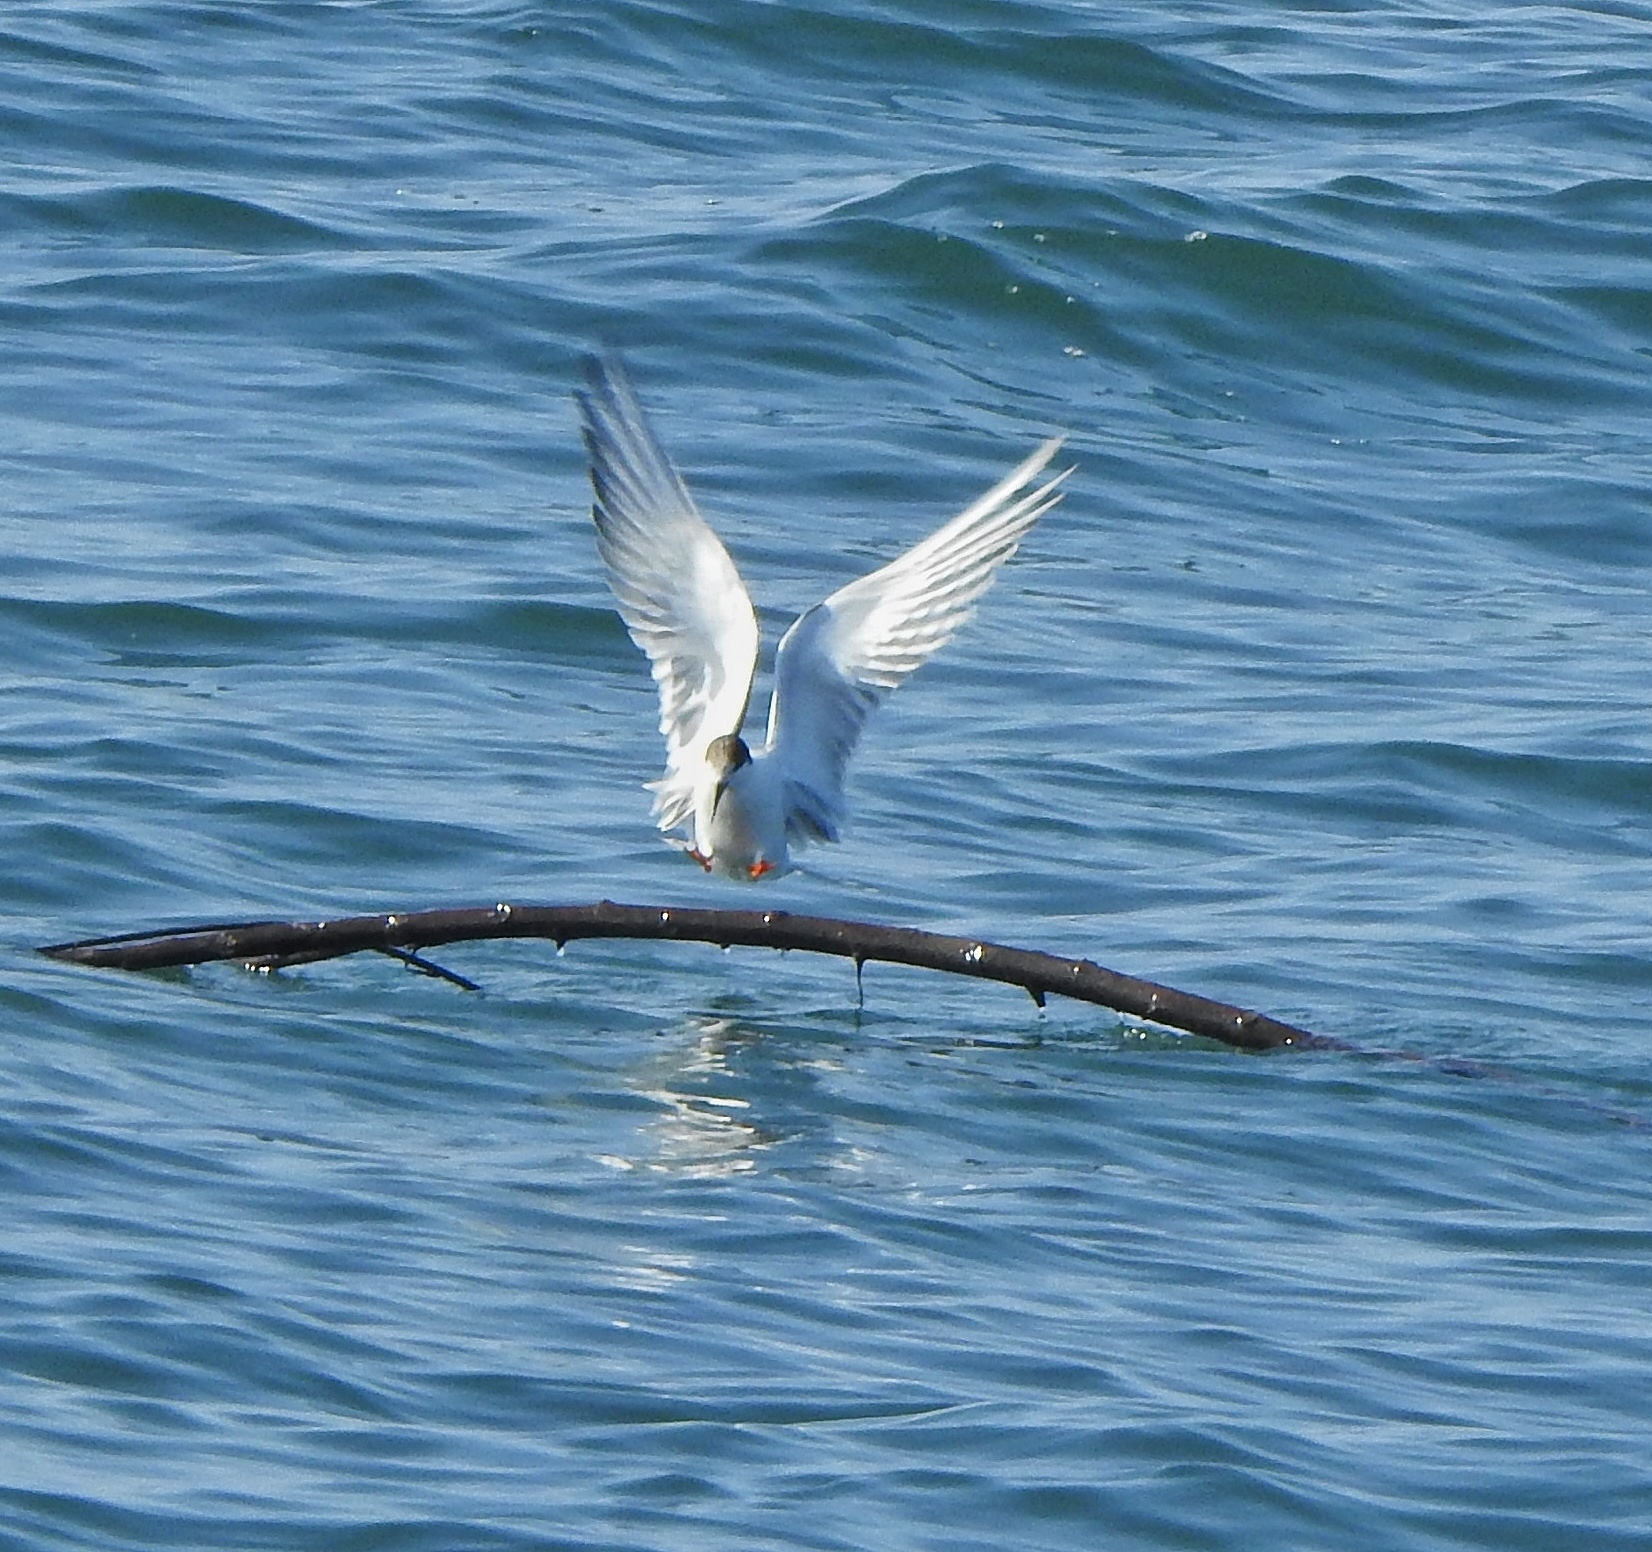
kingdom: Animalia
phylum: Chordata
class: Aves
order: Charadriiformes
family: Laridae
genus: Sterna
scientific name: Sterna hirundo
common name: Common tern
